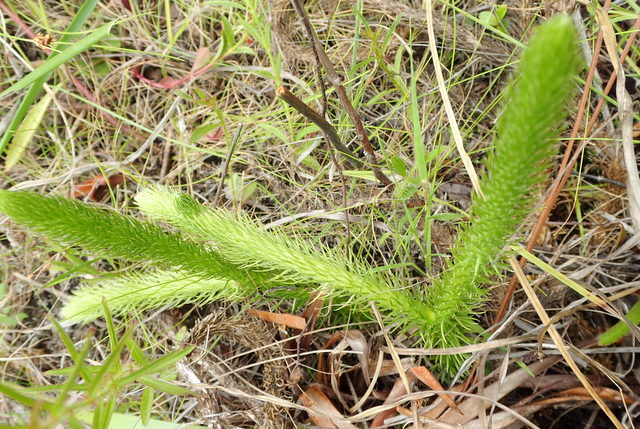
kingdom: Plantae
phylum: Tracheophyta
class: Lycopodiopsida
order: Lycopodiales
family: Lycopodiaceae
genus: Lycopodiella
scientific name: Lycopodiella alopecuroides
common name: Foxtail clubmoss
